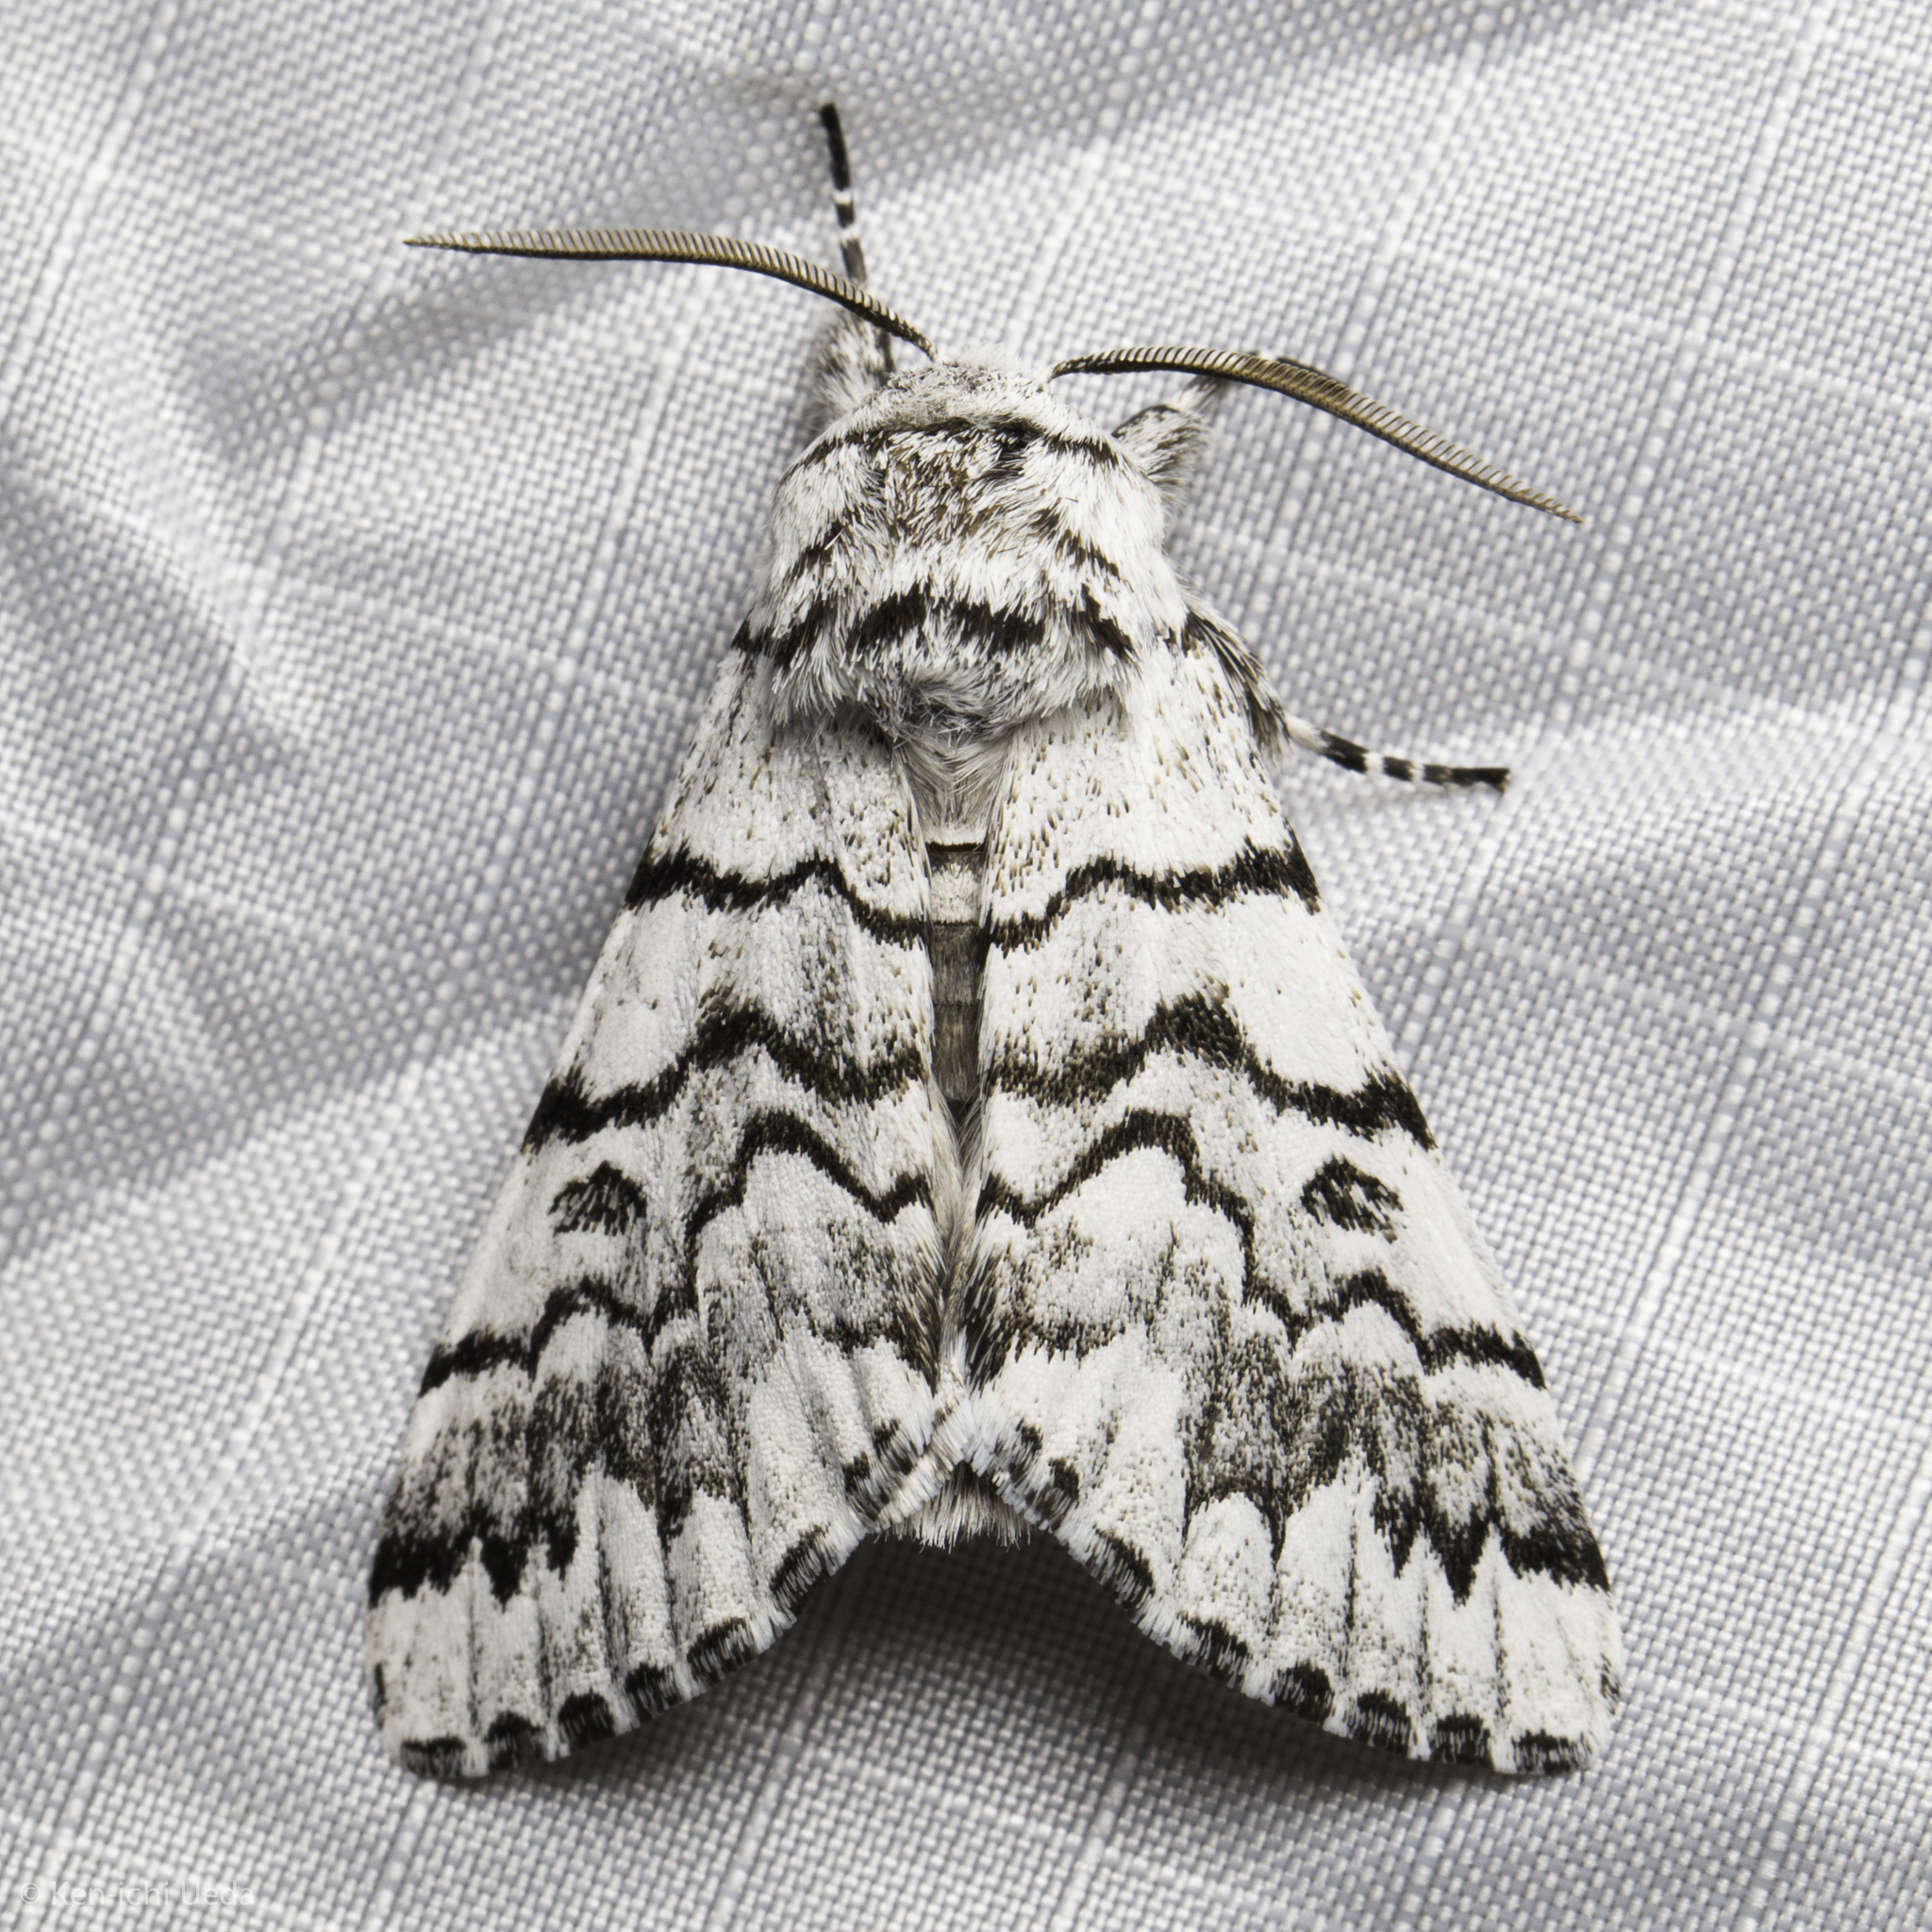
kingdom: Animalia
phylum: Arthropoda
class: Insecta
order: Lepidoptera
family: Noctuidae
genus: Panthea
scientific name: Panthea virginarius
